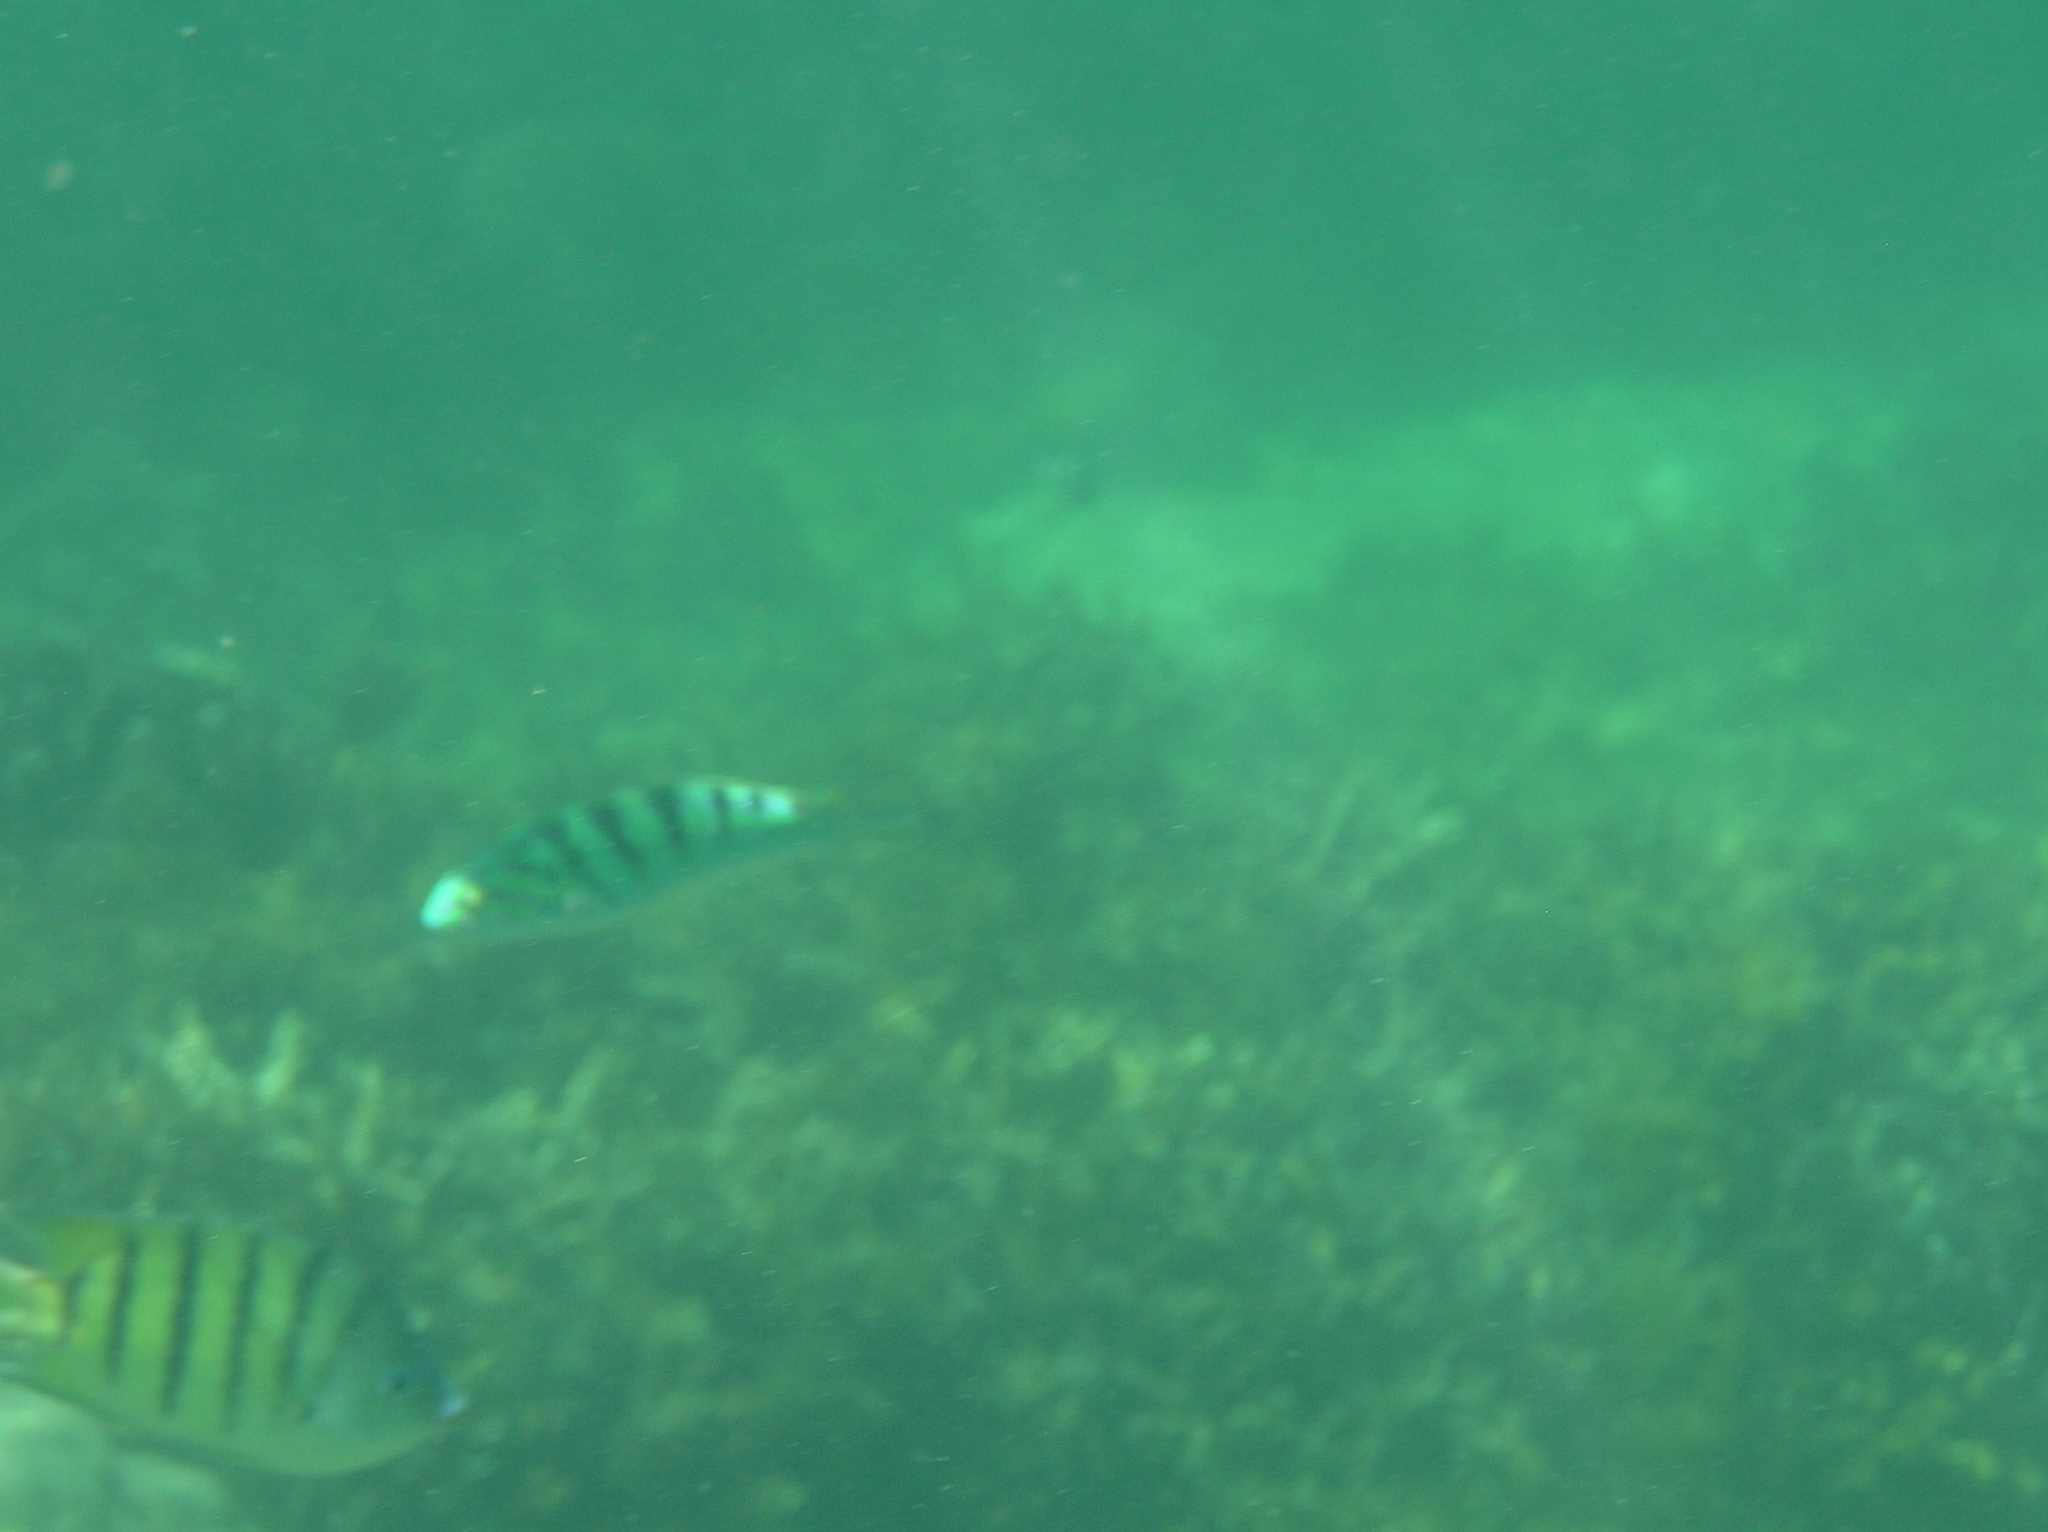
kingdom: Animalia
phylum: Chordata
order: Perciformes
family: Labridae
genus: Thalassoma
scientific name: Thalassoma hardwicke
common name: Sixbar wrasse
